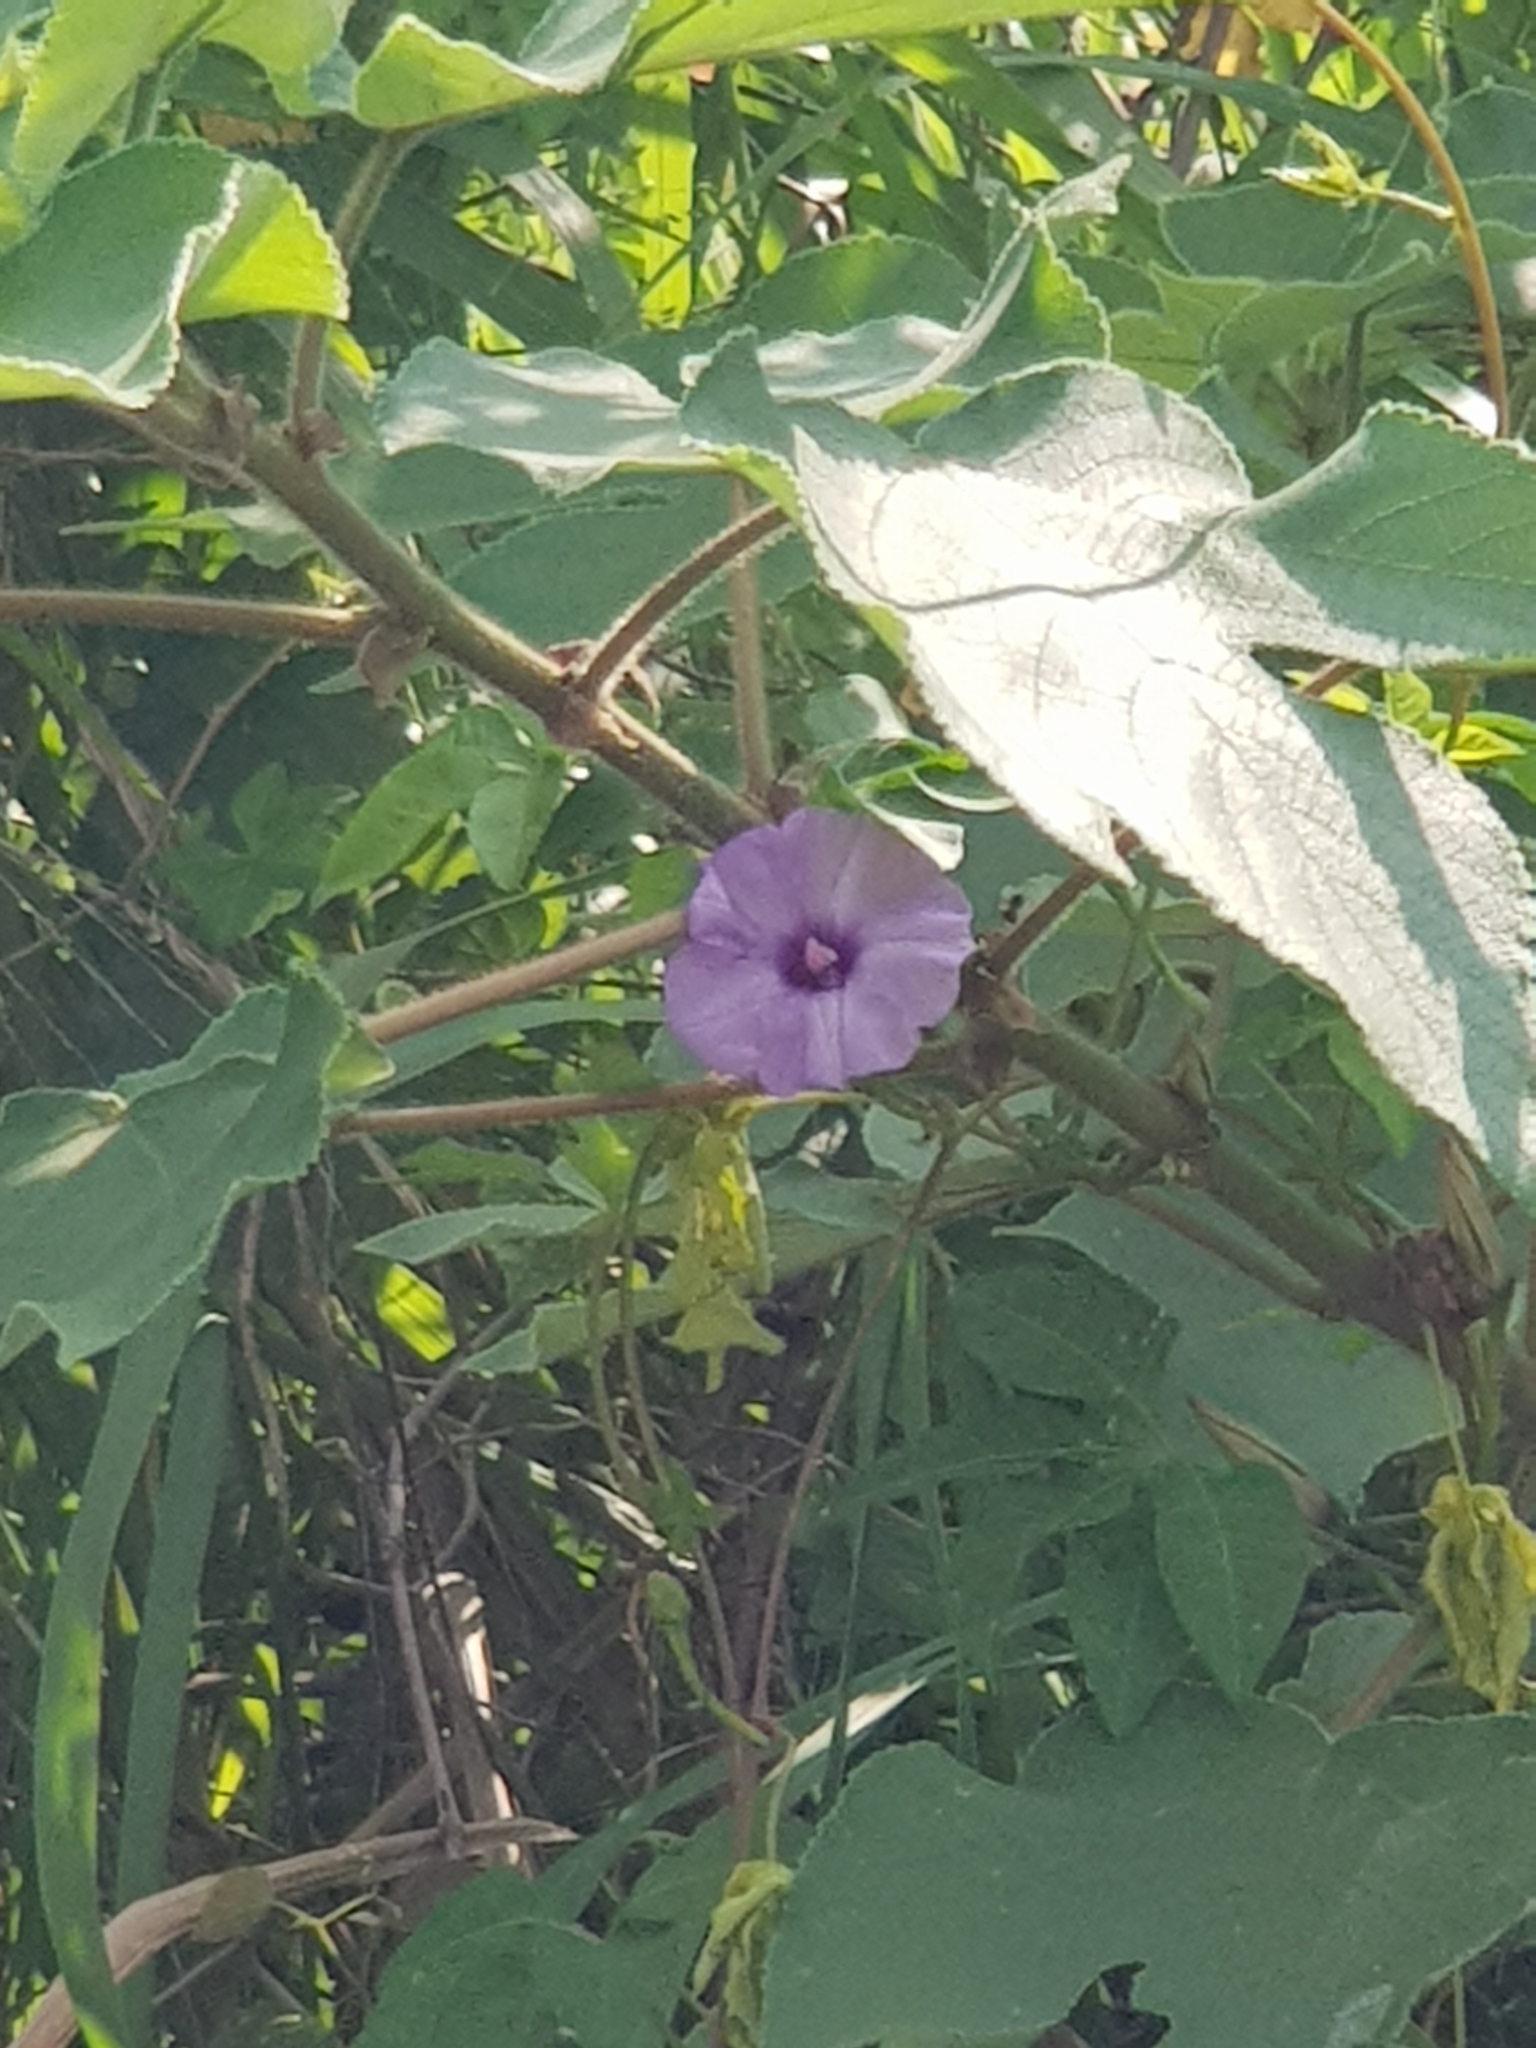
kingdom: Plantae
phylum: Tracheophyta
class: Magnoliopsida
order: Solanales
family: Convolvulaceae
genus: Ipomoea
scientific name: Ipomoea cairica
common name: Mile a minute vine
